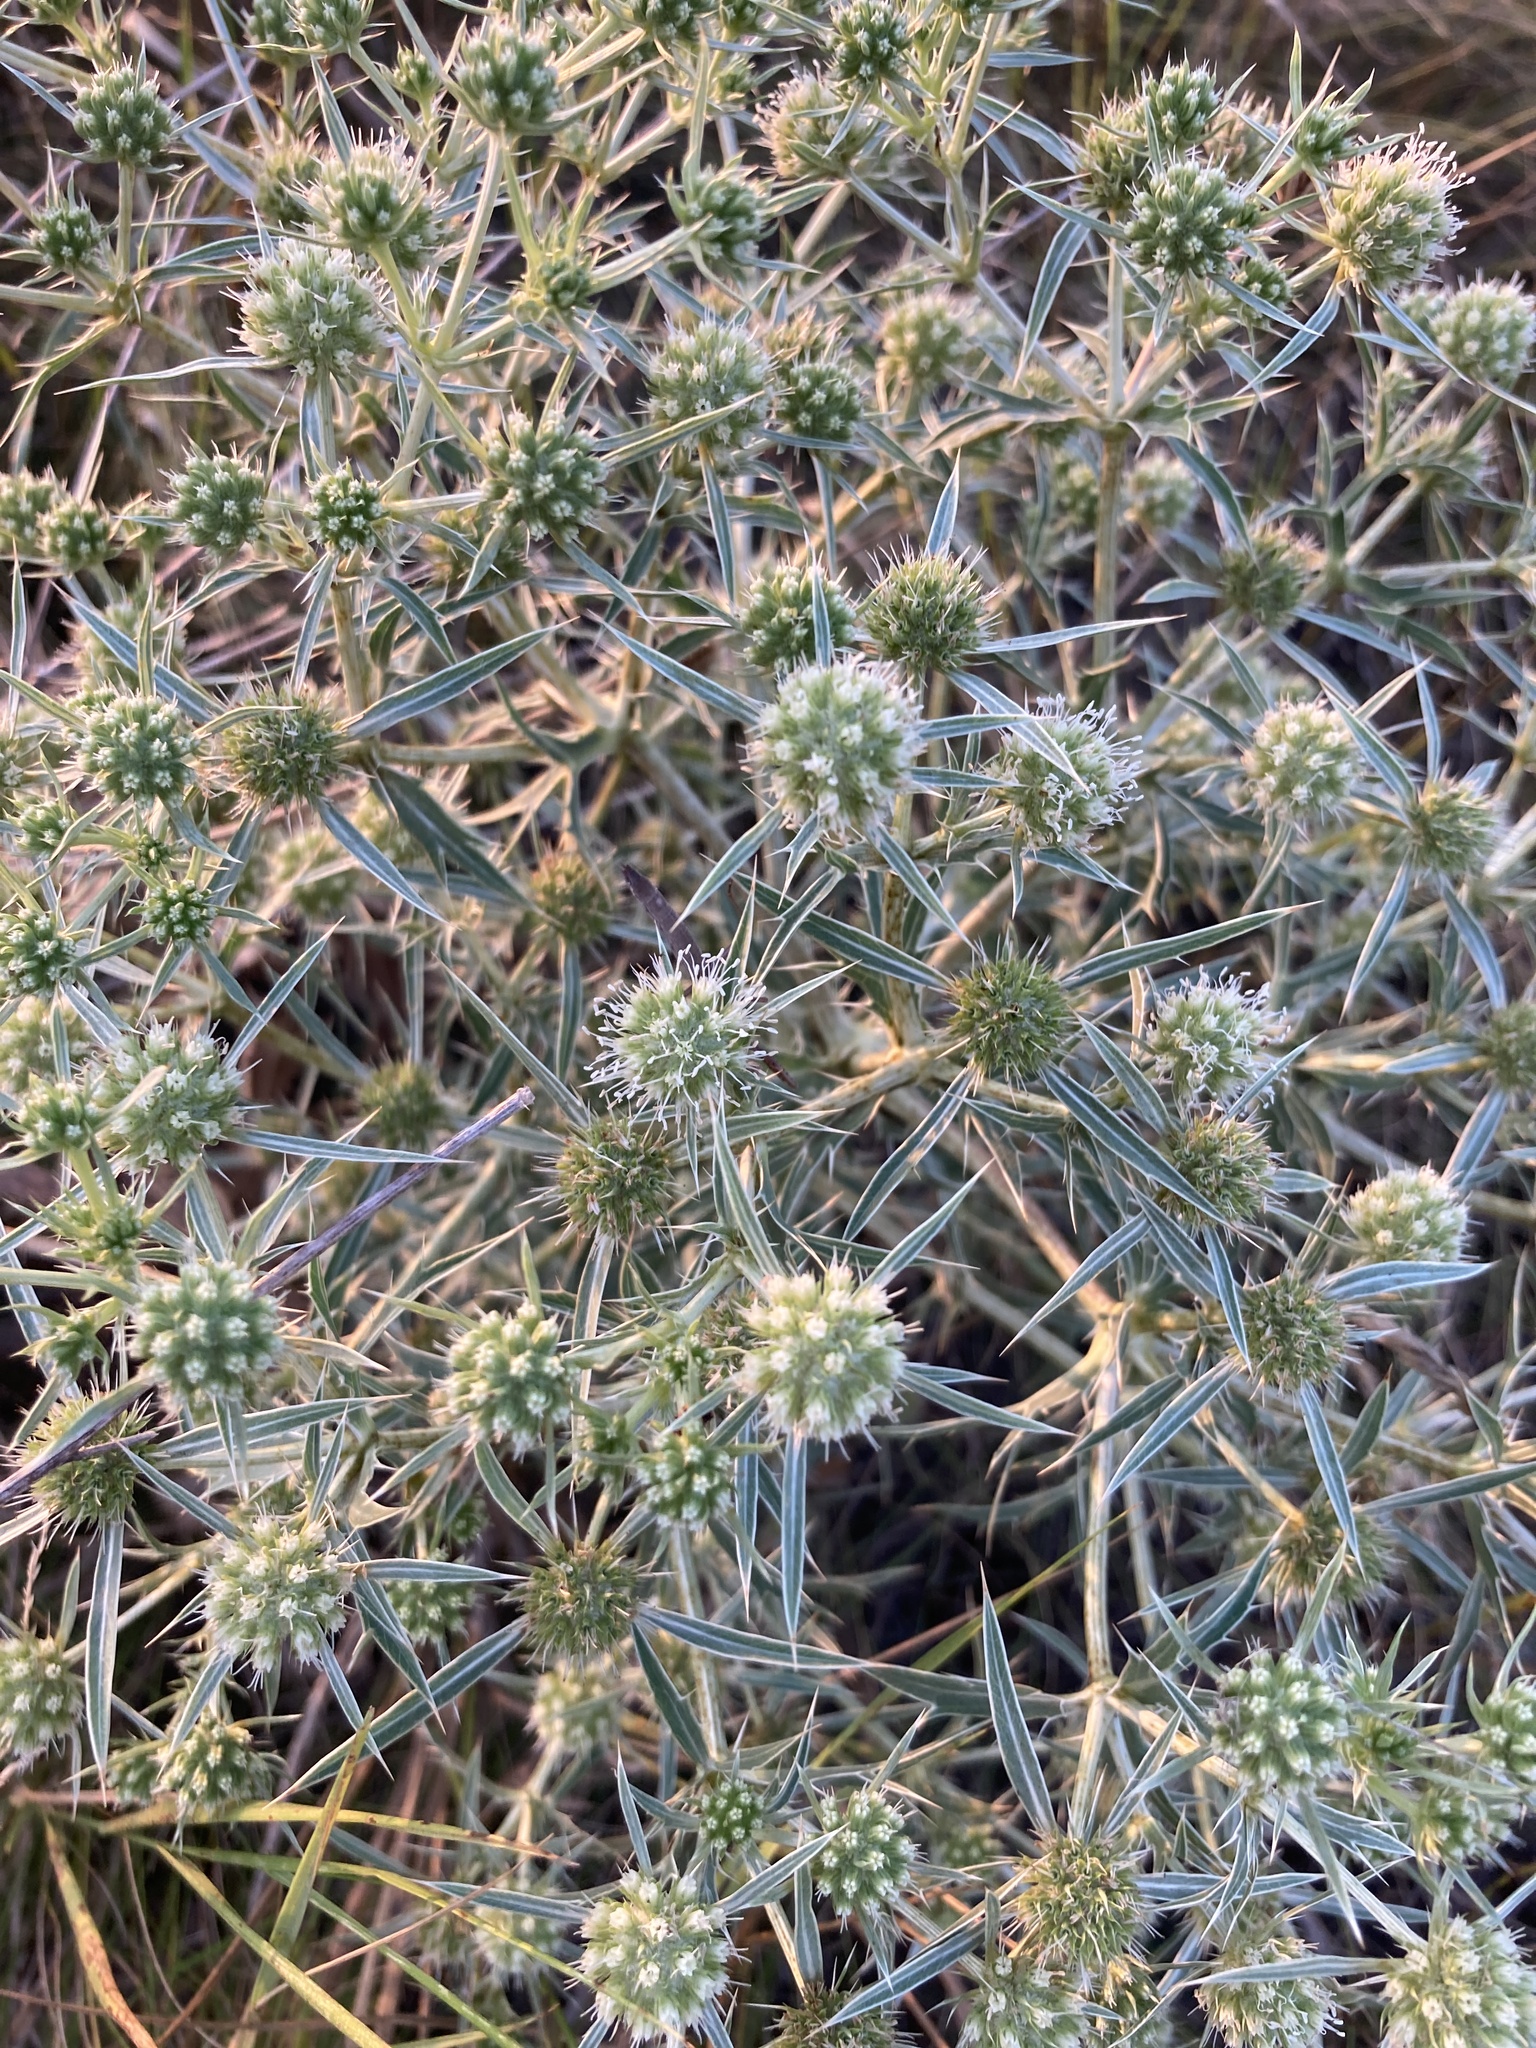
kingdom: Plantae
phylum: Tracheophyta
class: Magnoliopsida
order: Apiales
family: Apiaceae
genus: Eryngium
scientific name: Eryngium campestre
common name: Field eryngo
